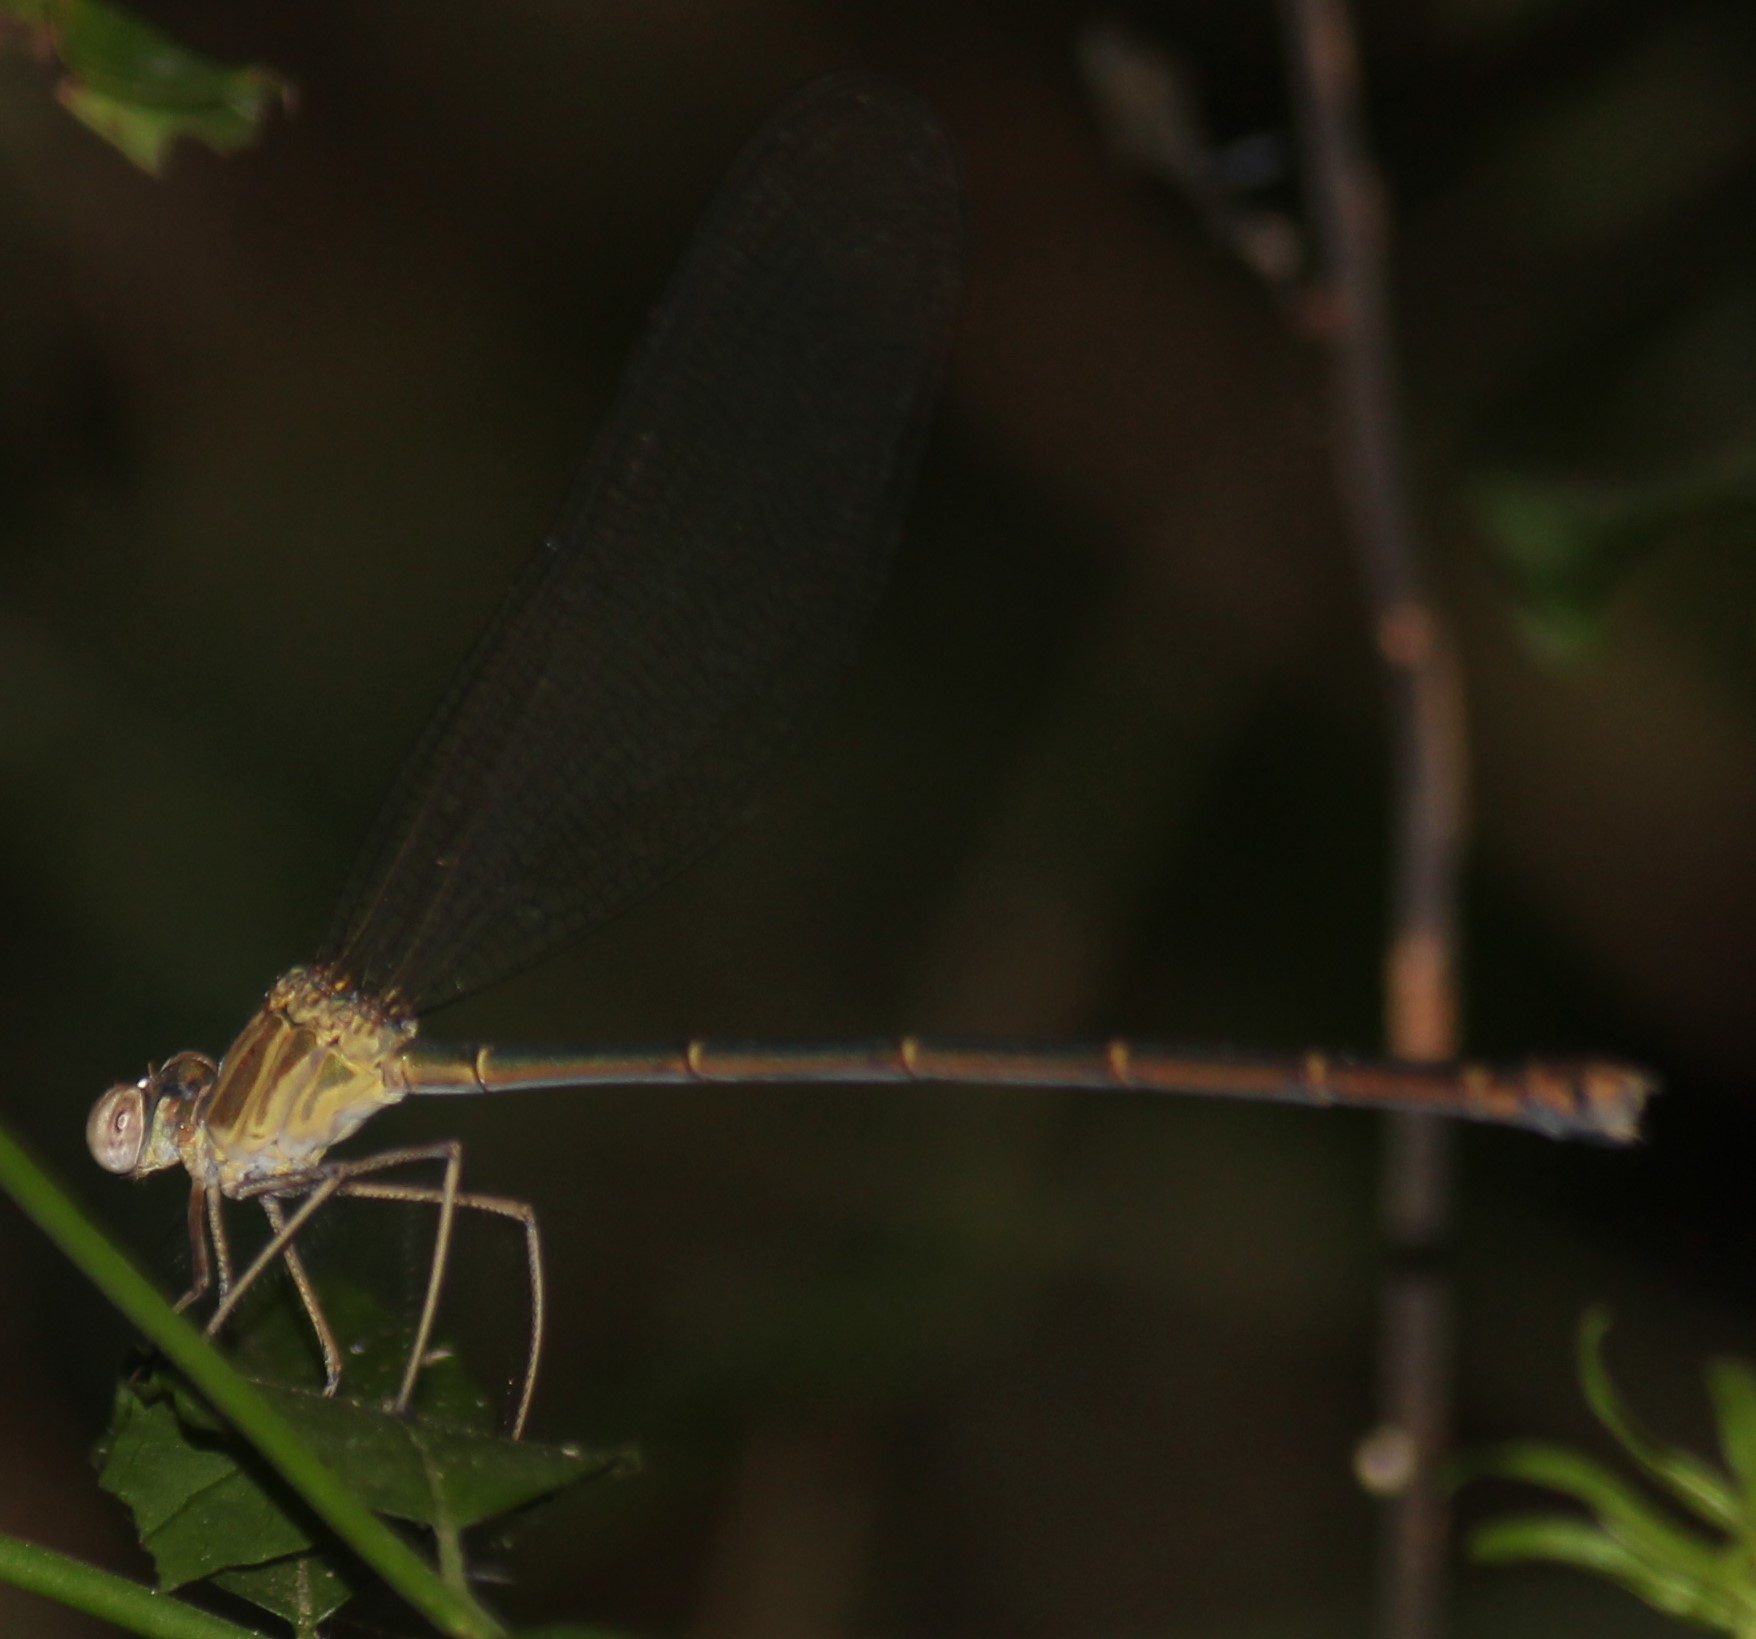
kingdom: Animalia
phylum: Arthropoda
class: Insecta
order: Odonata
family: Calopterygidae
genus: Phaon
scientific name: Phaon iridipennis
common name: Glistening demoiselle
